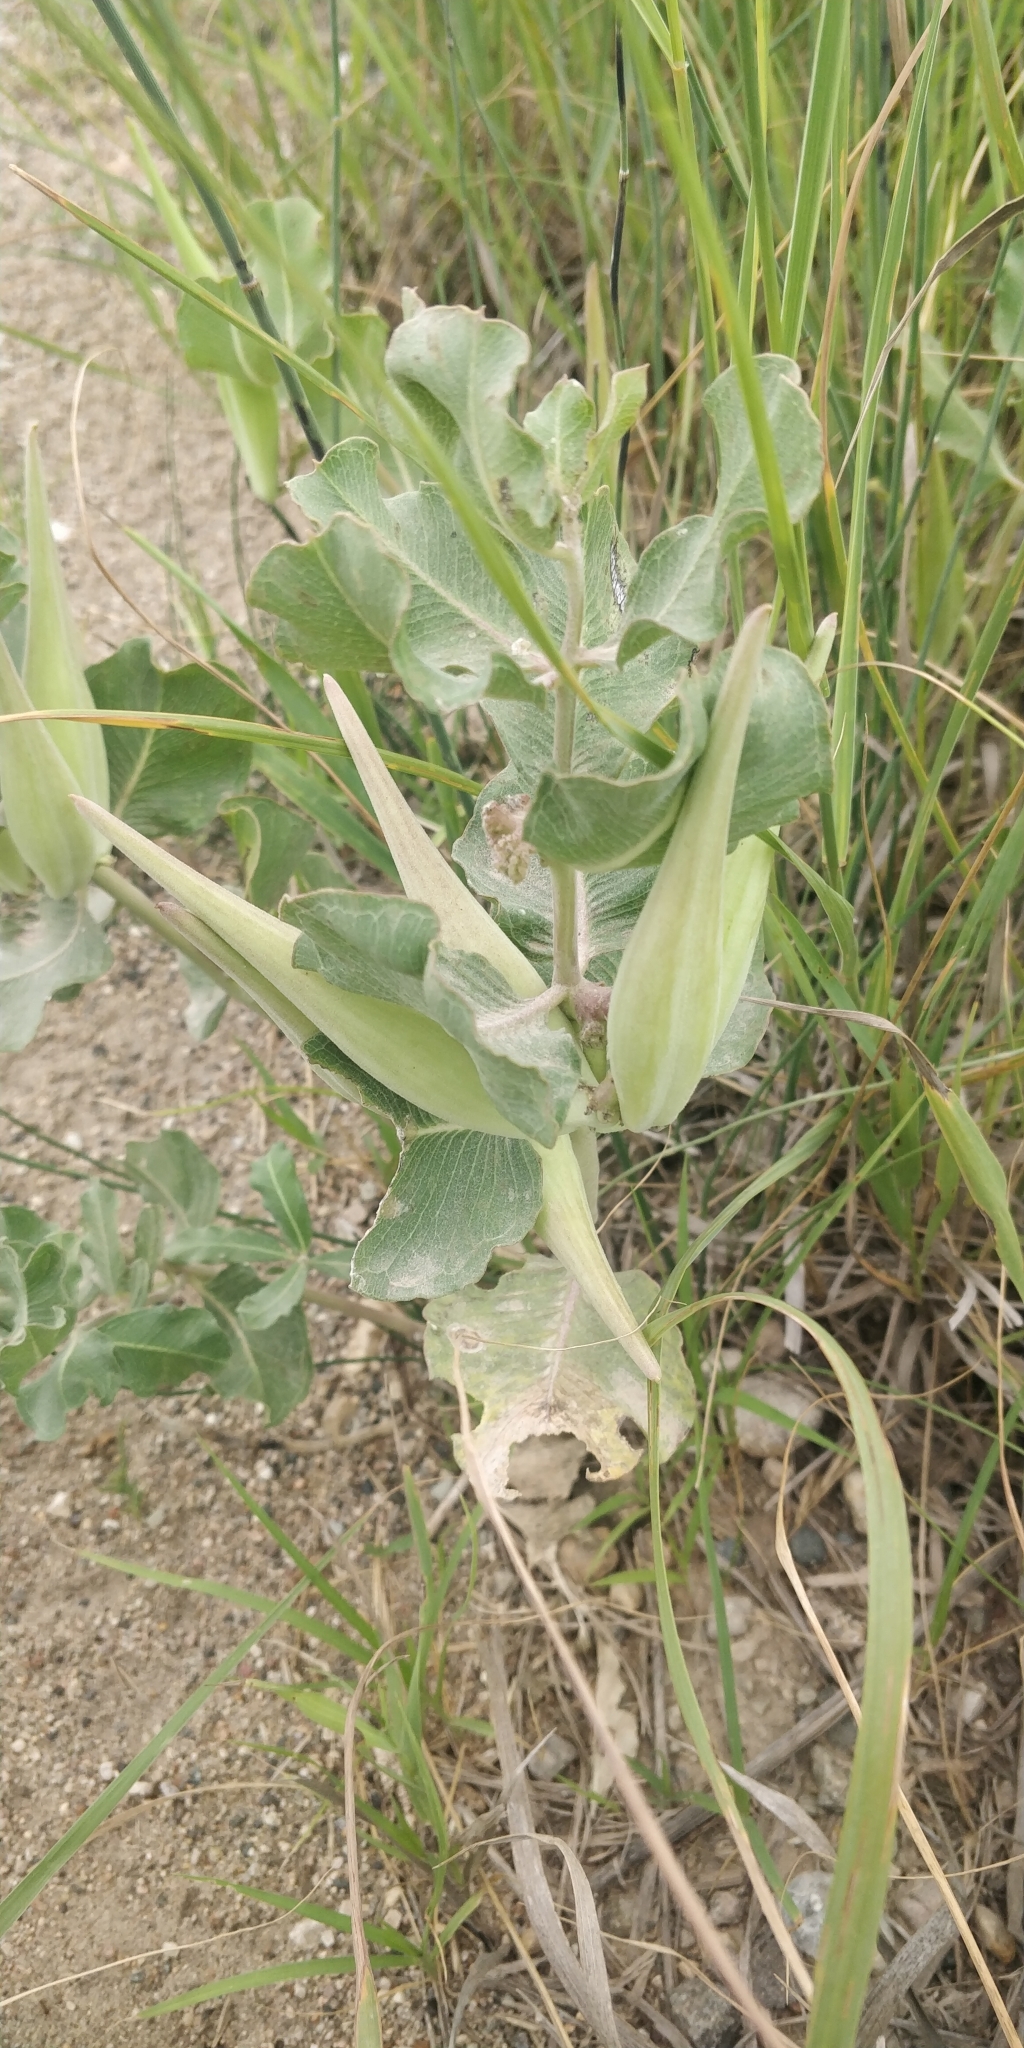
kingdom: Plantae
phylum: Tracheophyta
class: Magnoliopsida
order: Gentianales
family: Apocynaceae
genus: Asclepias
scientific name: Asclepias viridiflora
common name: Green comet milkweed
